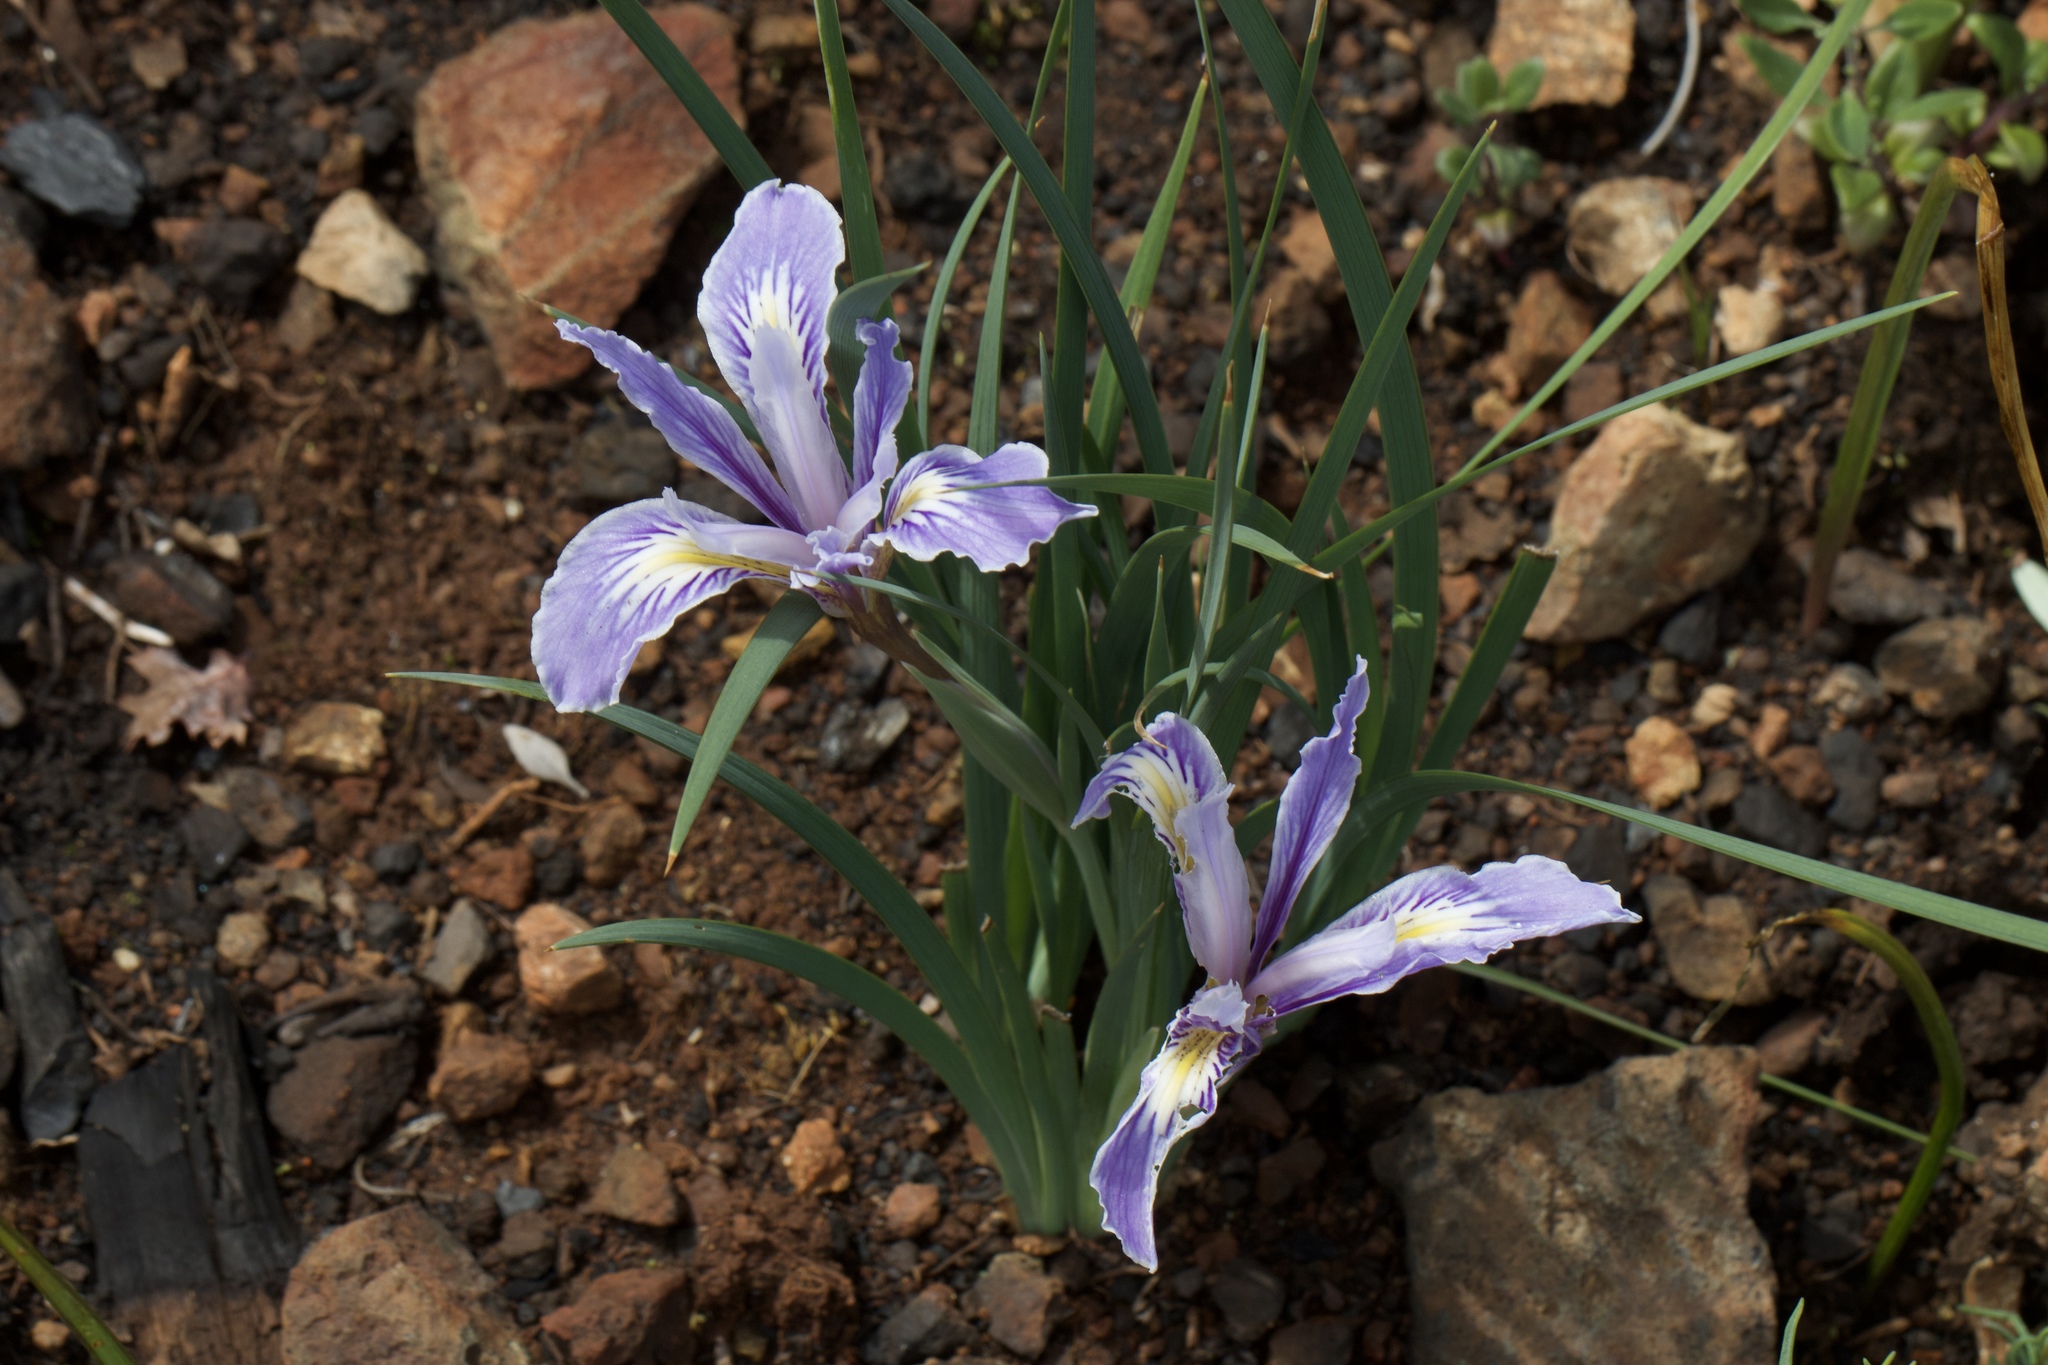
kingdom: Plantae
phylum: Tracheophyta
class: Liliopsida
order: Asparagales
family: Iridaceae
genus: Iris
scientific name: Iris macrosiphon
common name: Ground iris
